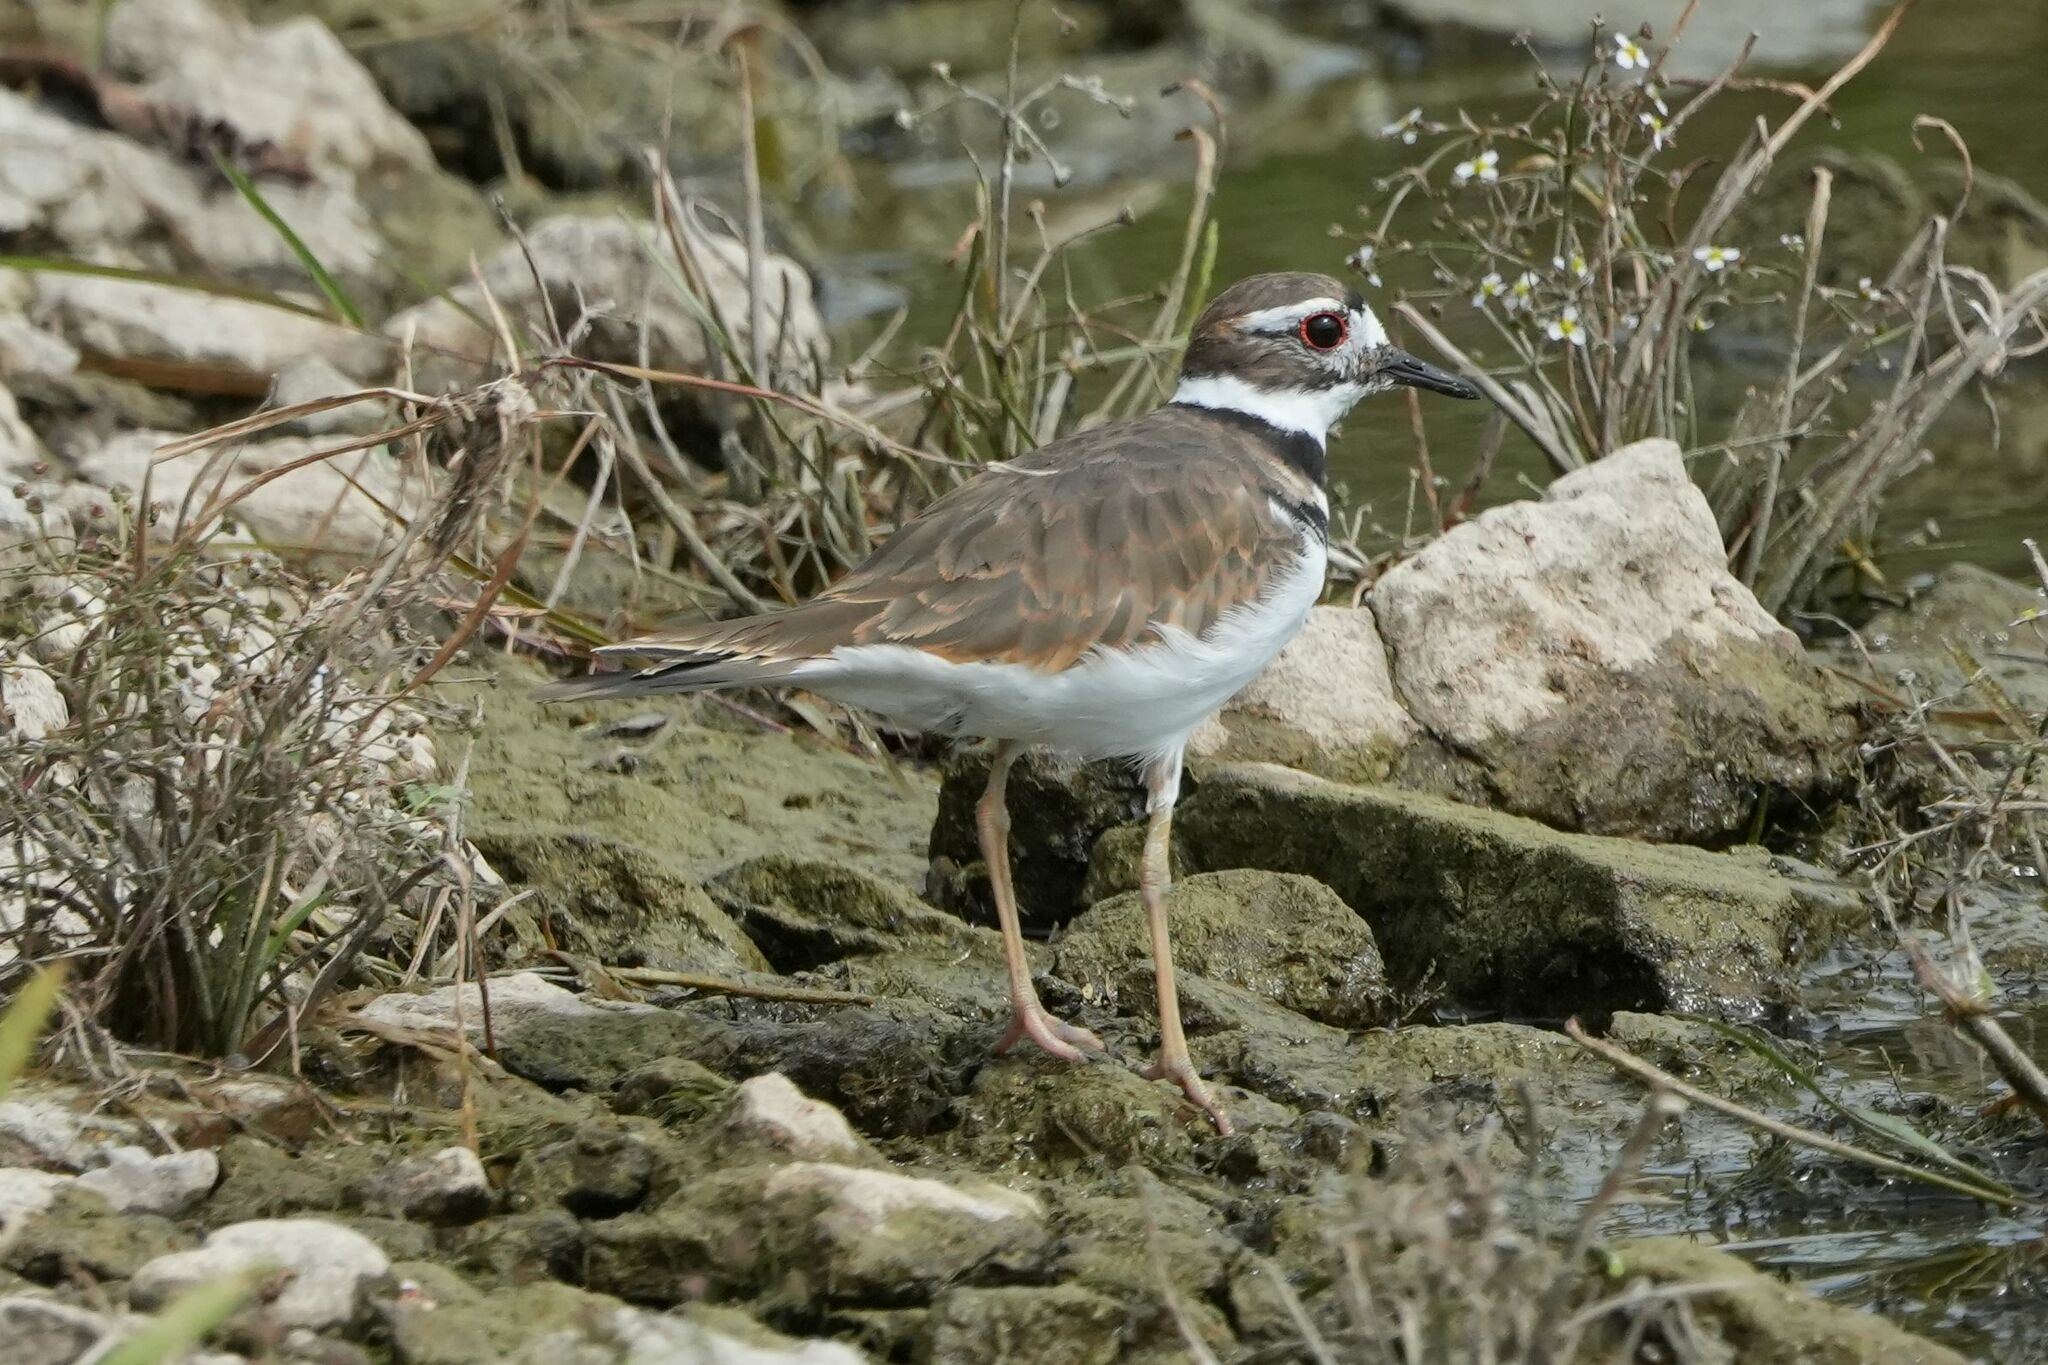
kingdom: Animalia
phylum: Chordata
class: Aves
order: Charadriiformes
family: Charadriidae
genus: Charadrius
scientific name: Charadrius vociferus
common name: Killdeer
